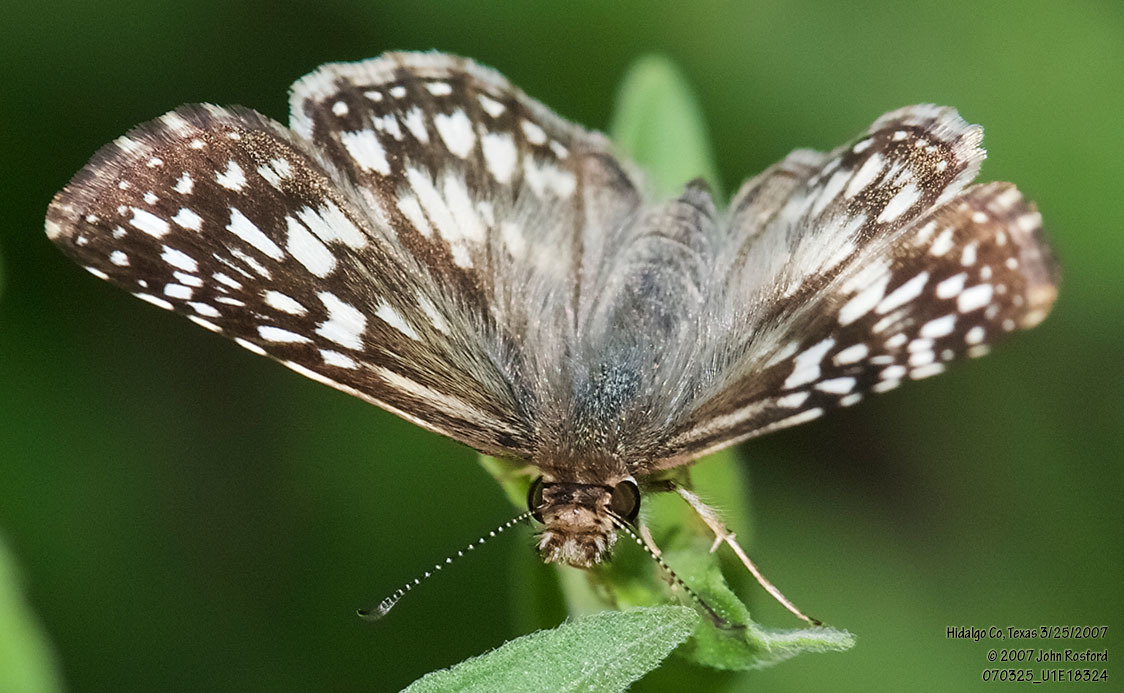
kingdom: Animalia
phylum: Arthropoda
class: Insecta
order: Lepidoptera
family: Hesperiidae
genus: Pyrgus
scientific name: Pyrgus oileus
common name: Tropical checkered-skipper
